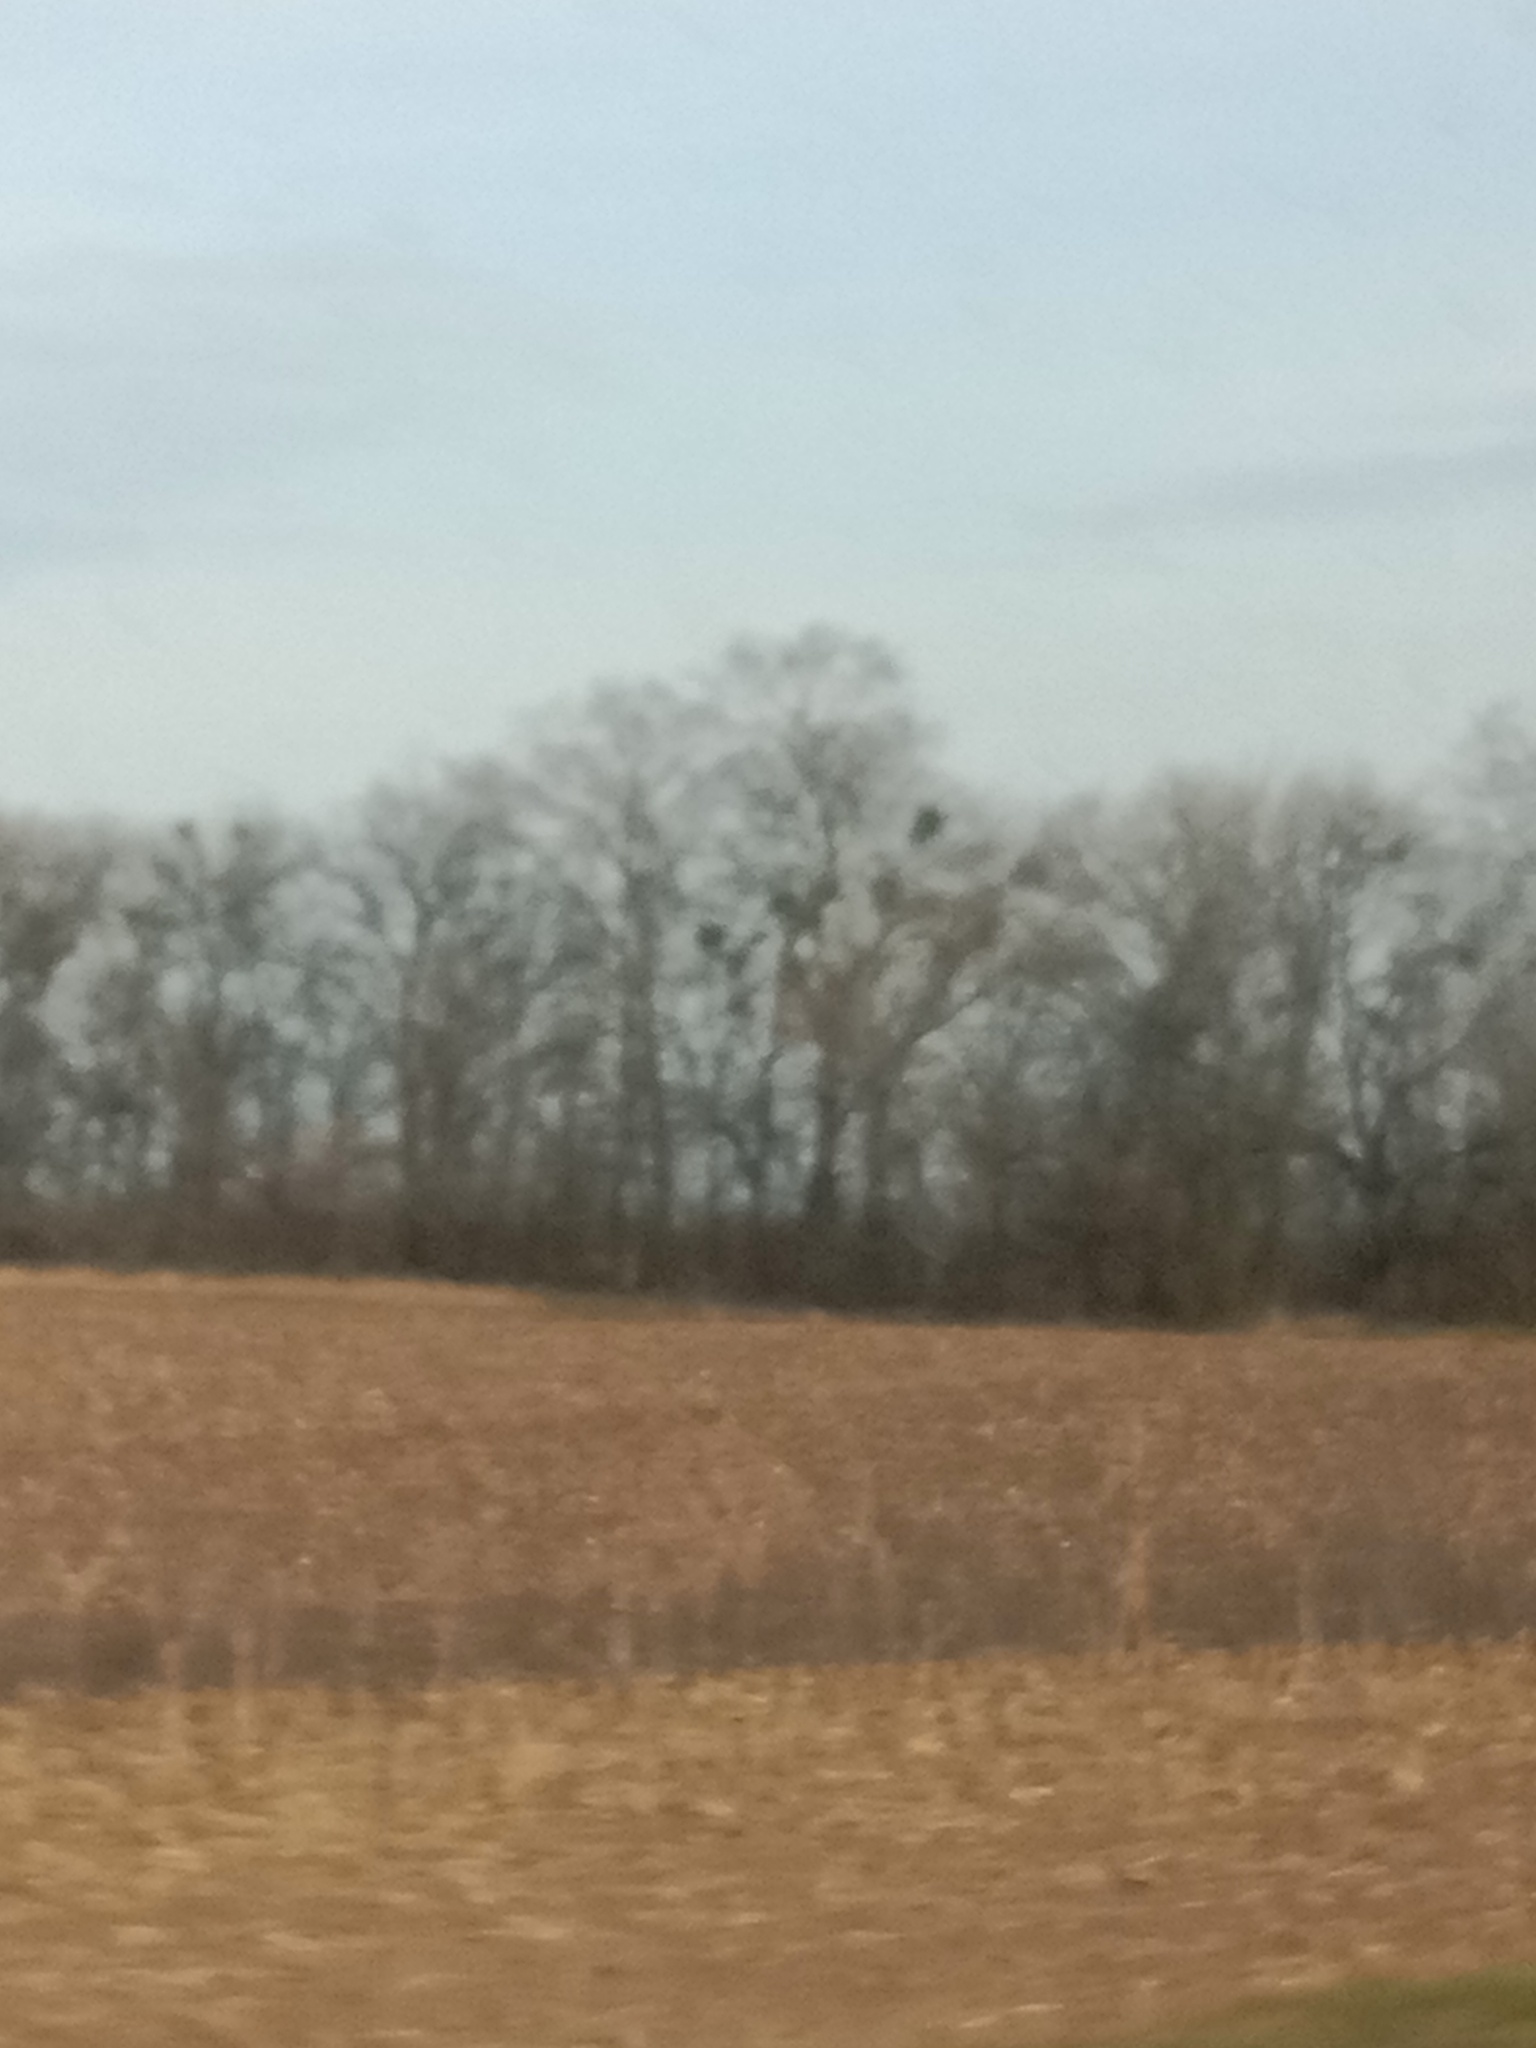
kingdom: Plantae
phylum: Tracheophyta
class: Magnoliopsida
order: Santalales
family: Viscaceae
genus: Viscum
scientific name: Viscum album
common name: Mistletoe
